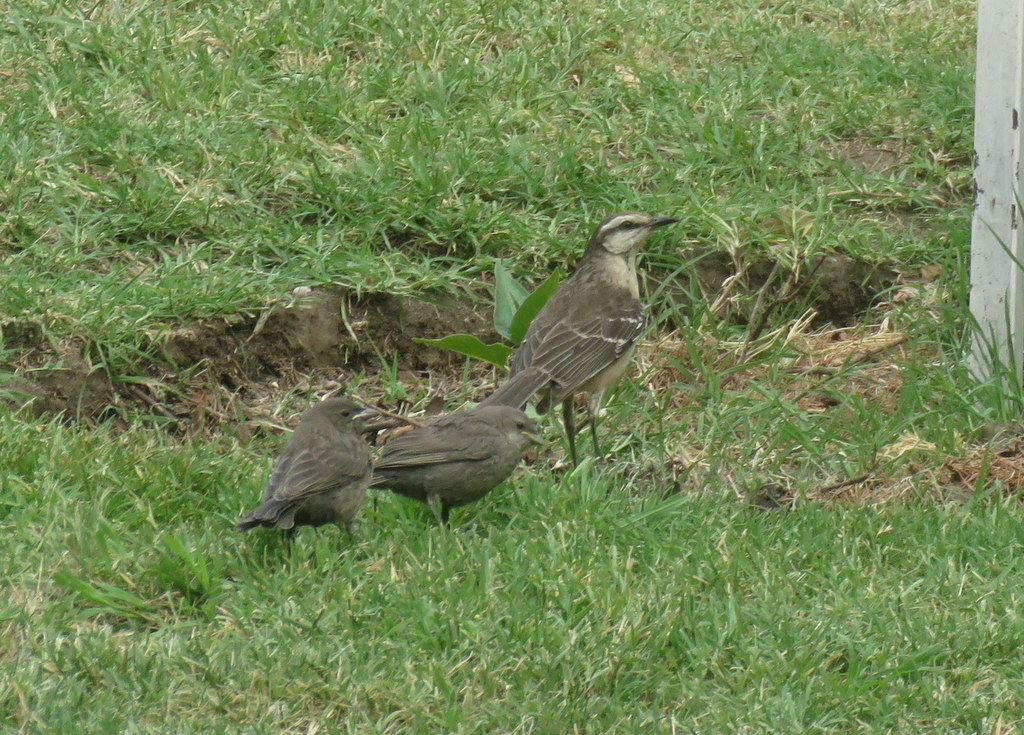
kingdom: Animalia
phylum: Chordata
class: Aves
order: Passeriformes
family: Mimidae
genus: Mimus
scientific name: Mimus saturninus
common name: Chalk-browed mockingbird
